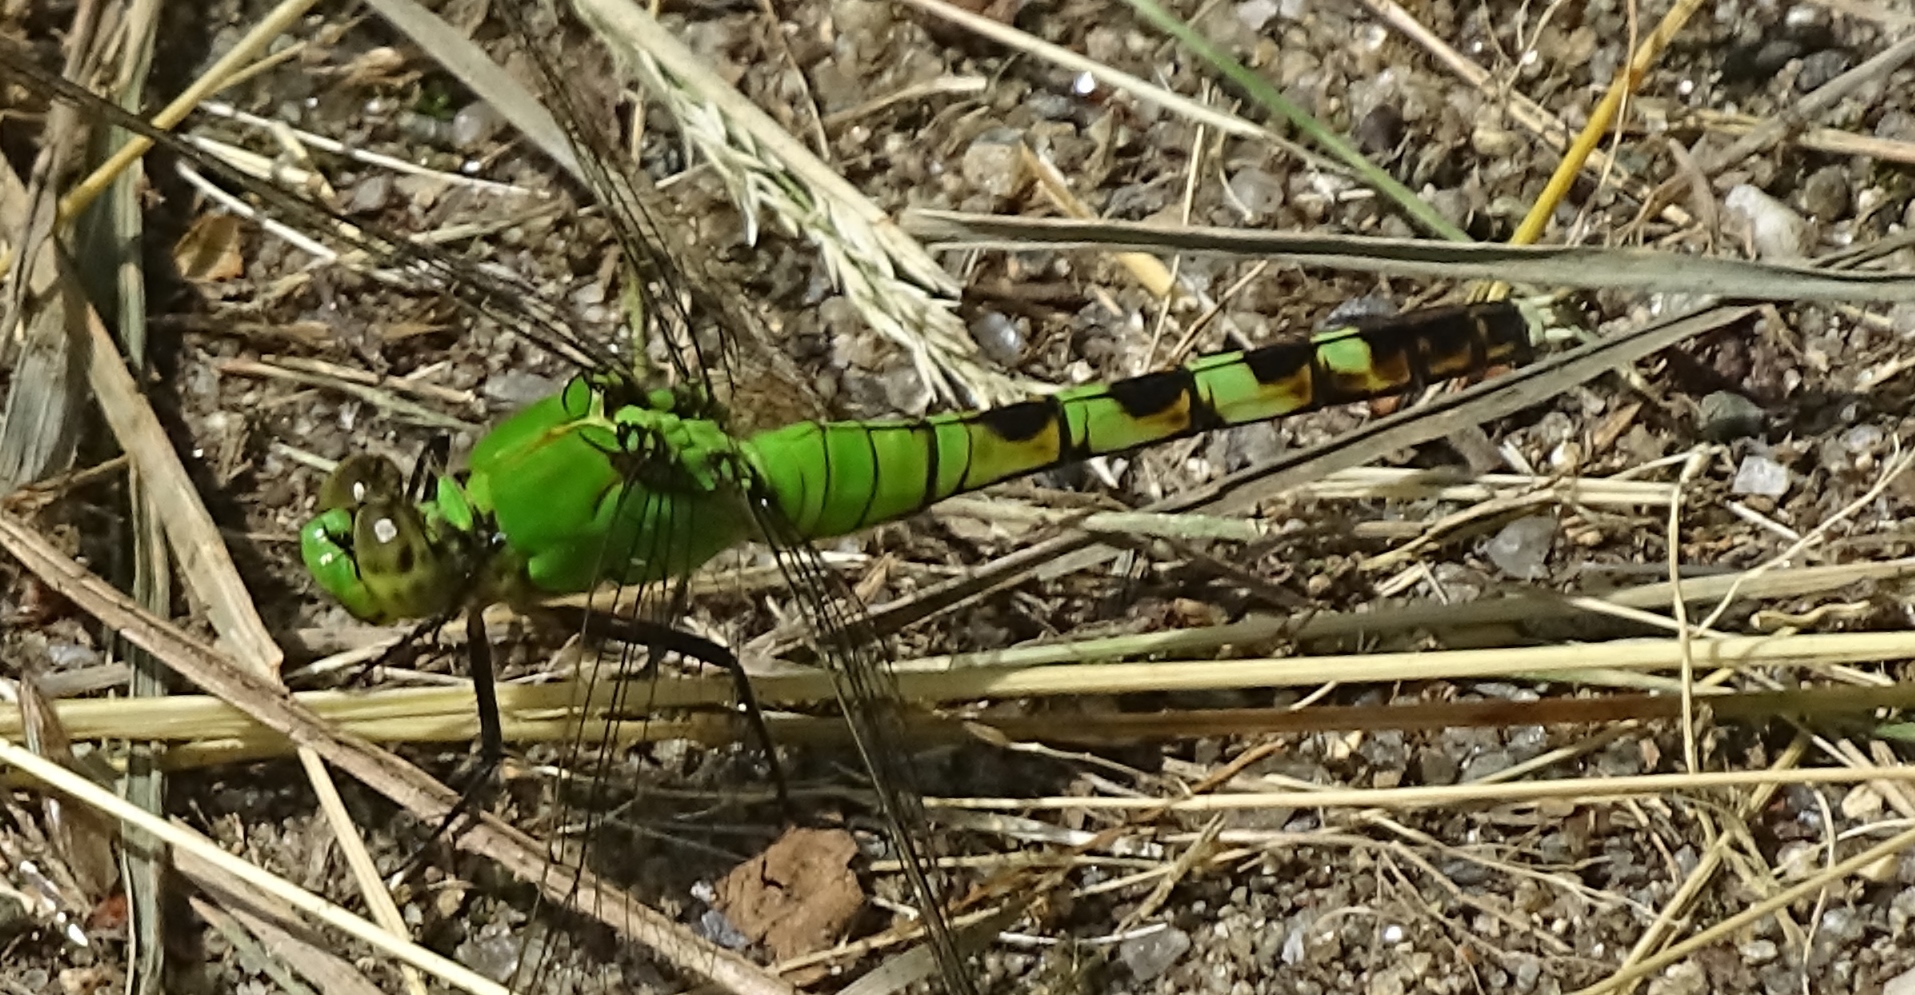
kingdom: Animalia
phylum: Arthropoda
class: Insecta
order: Odonata
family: Libellulidae
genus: Erythemis
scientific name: Erythemis simplicicollis
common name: Eastern pondhawk
